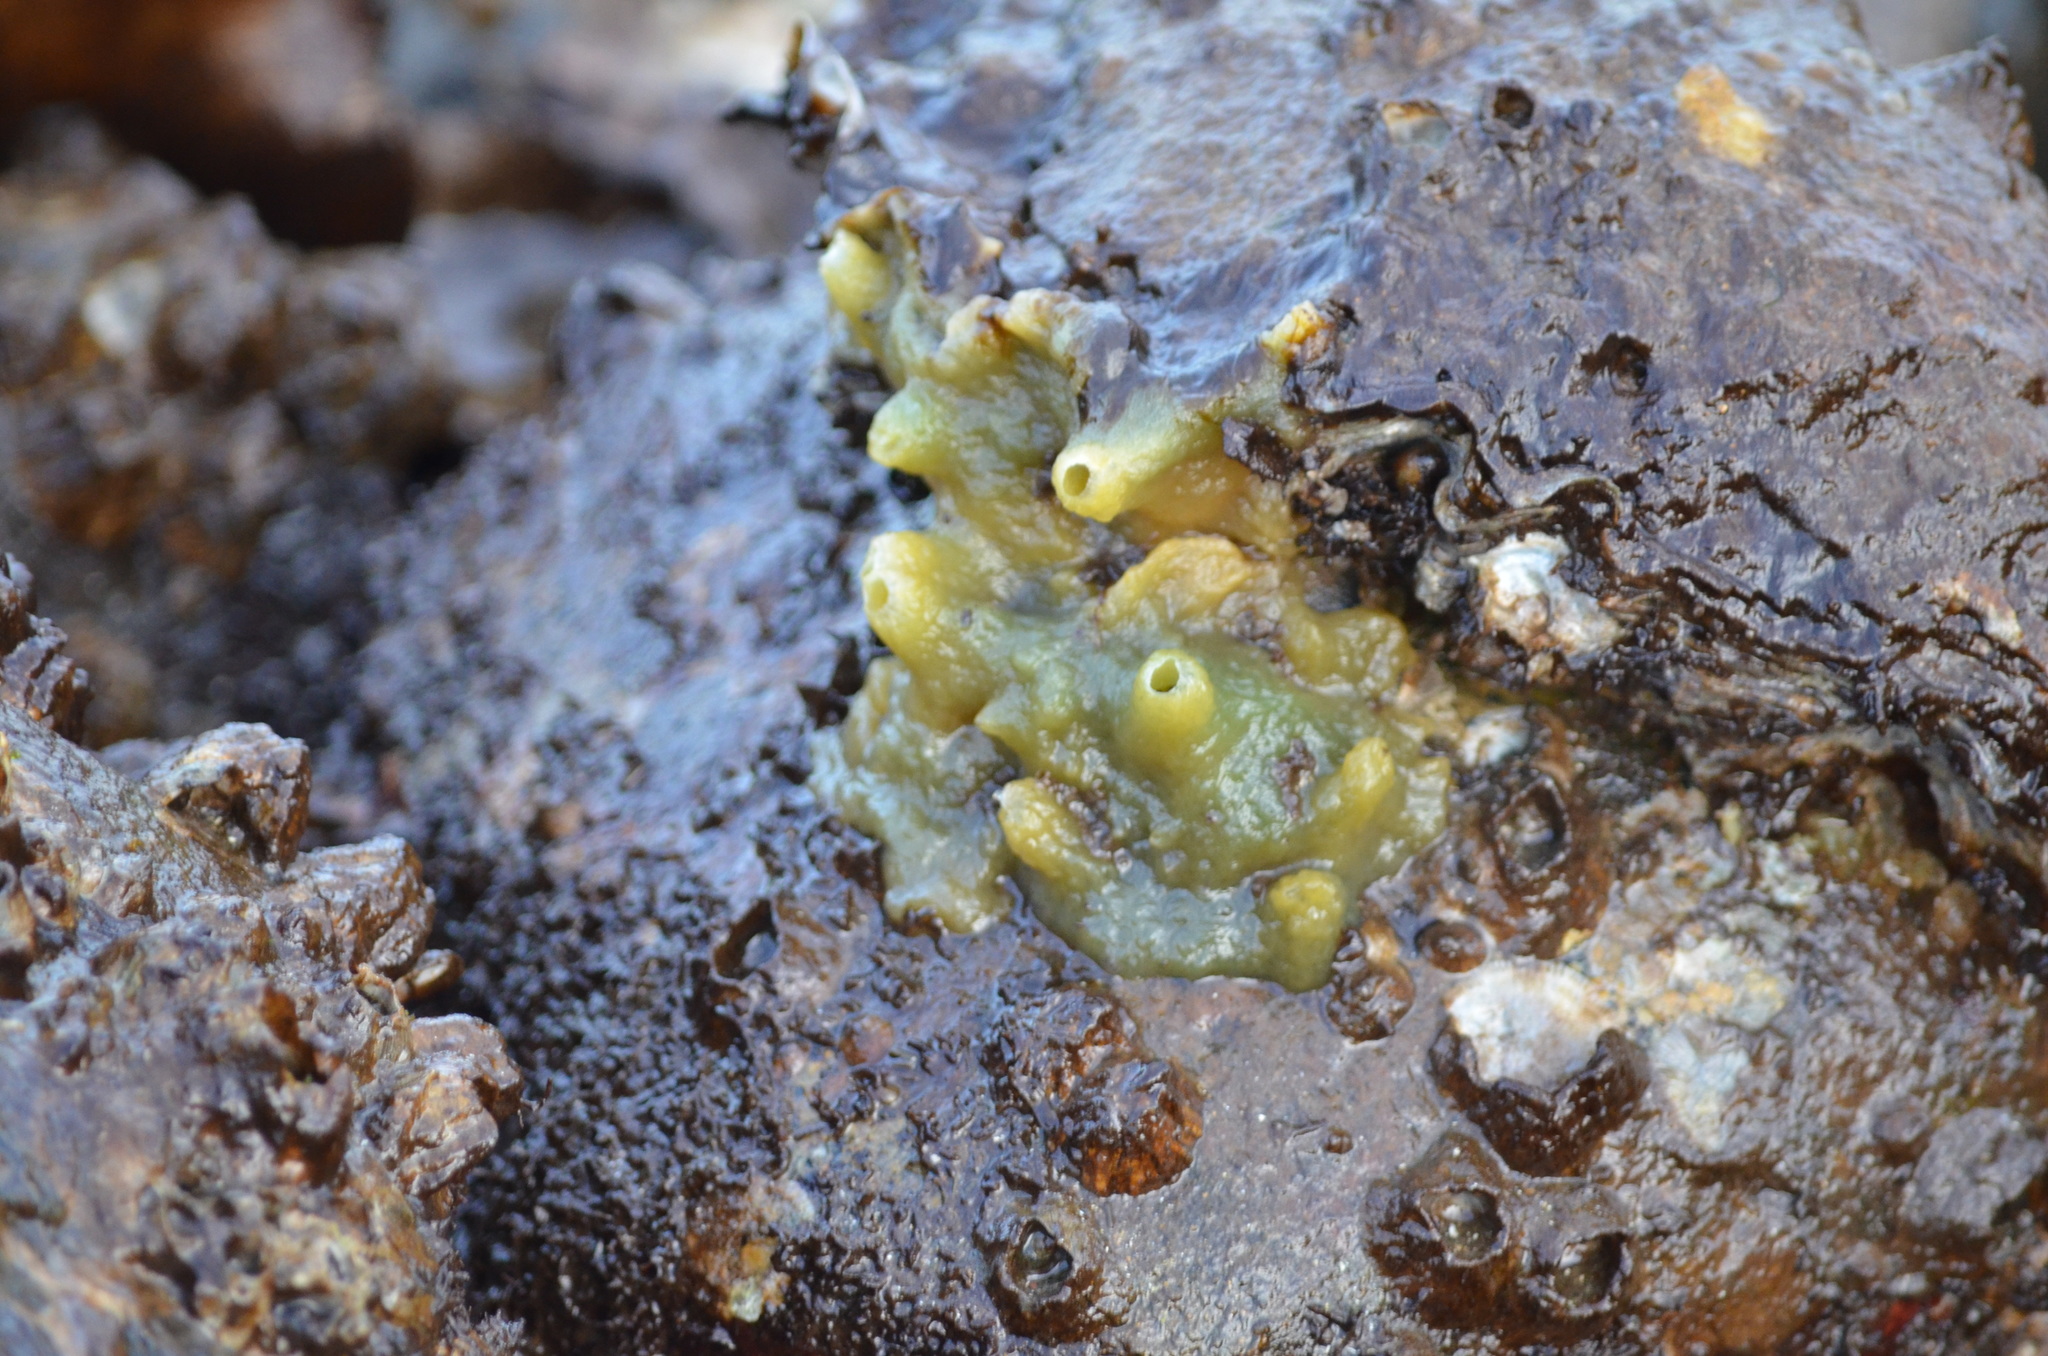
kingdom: Animalia
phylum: Porifera
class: Demospongiae
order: Suberitida
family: Halichondriidae
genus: Halichondria
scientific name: Halichondria panicea
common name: Breadcrumb sponge
